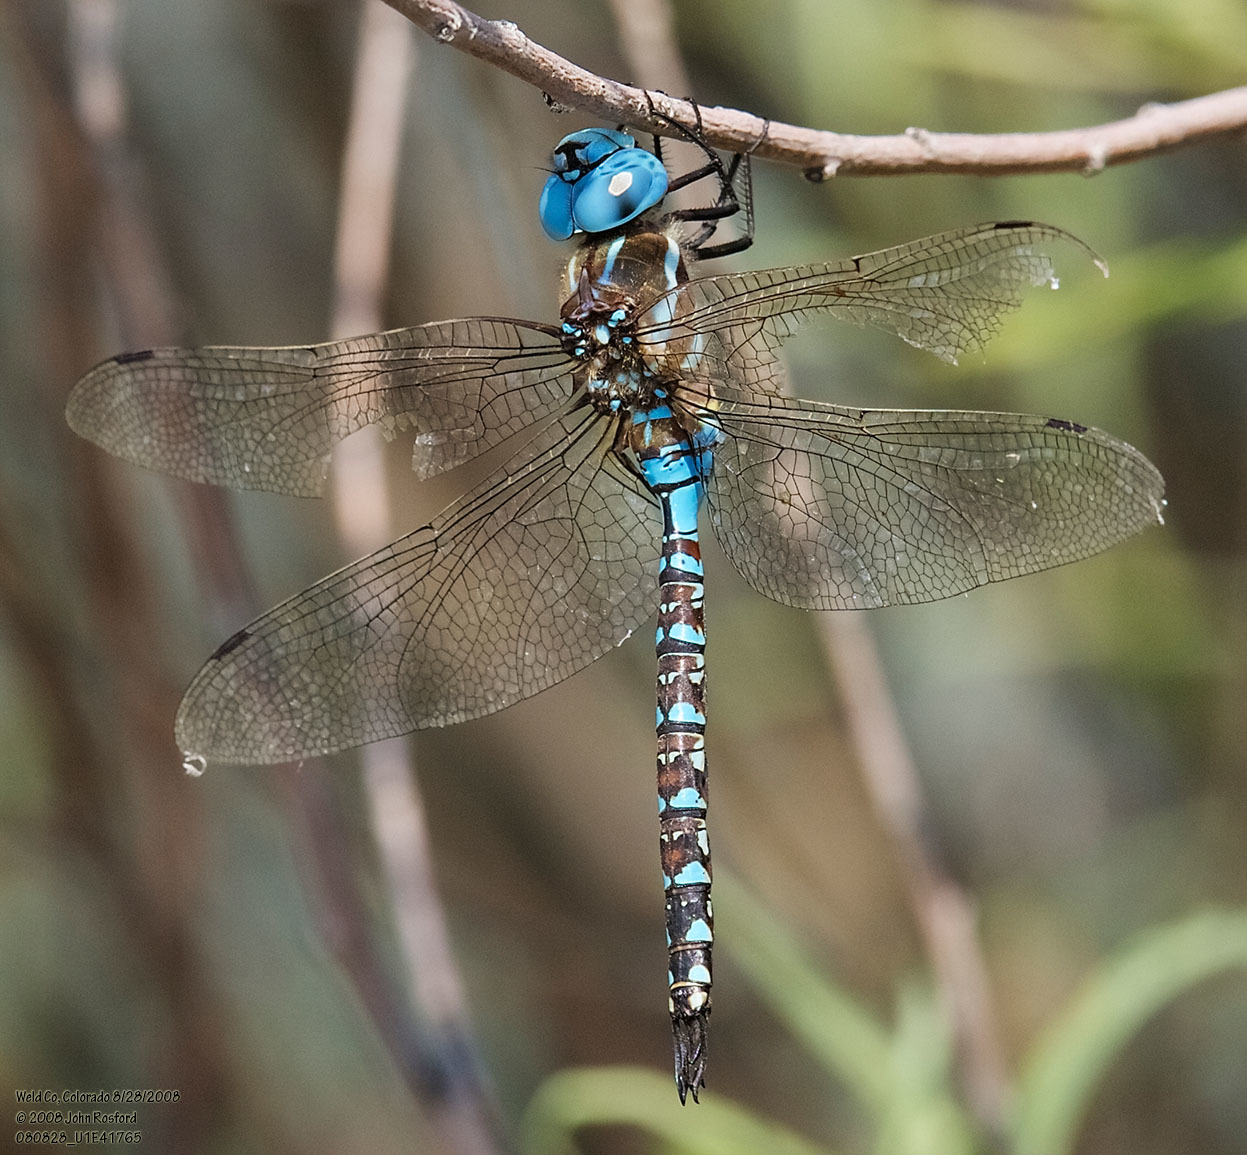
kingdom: Animalia
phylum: Arthropoda
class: Insecta
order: Odonata
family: Aeshnidae
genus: Rhionaeschna
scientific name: Rhionaeschna multicolor
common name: Blue-eyed darner
